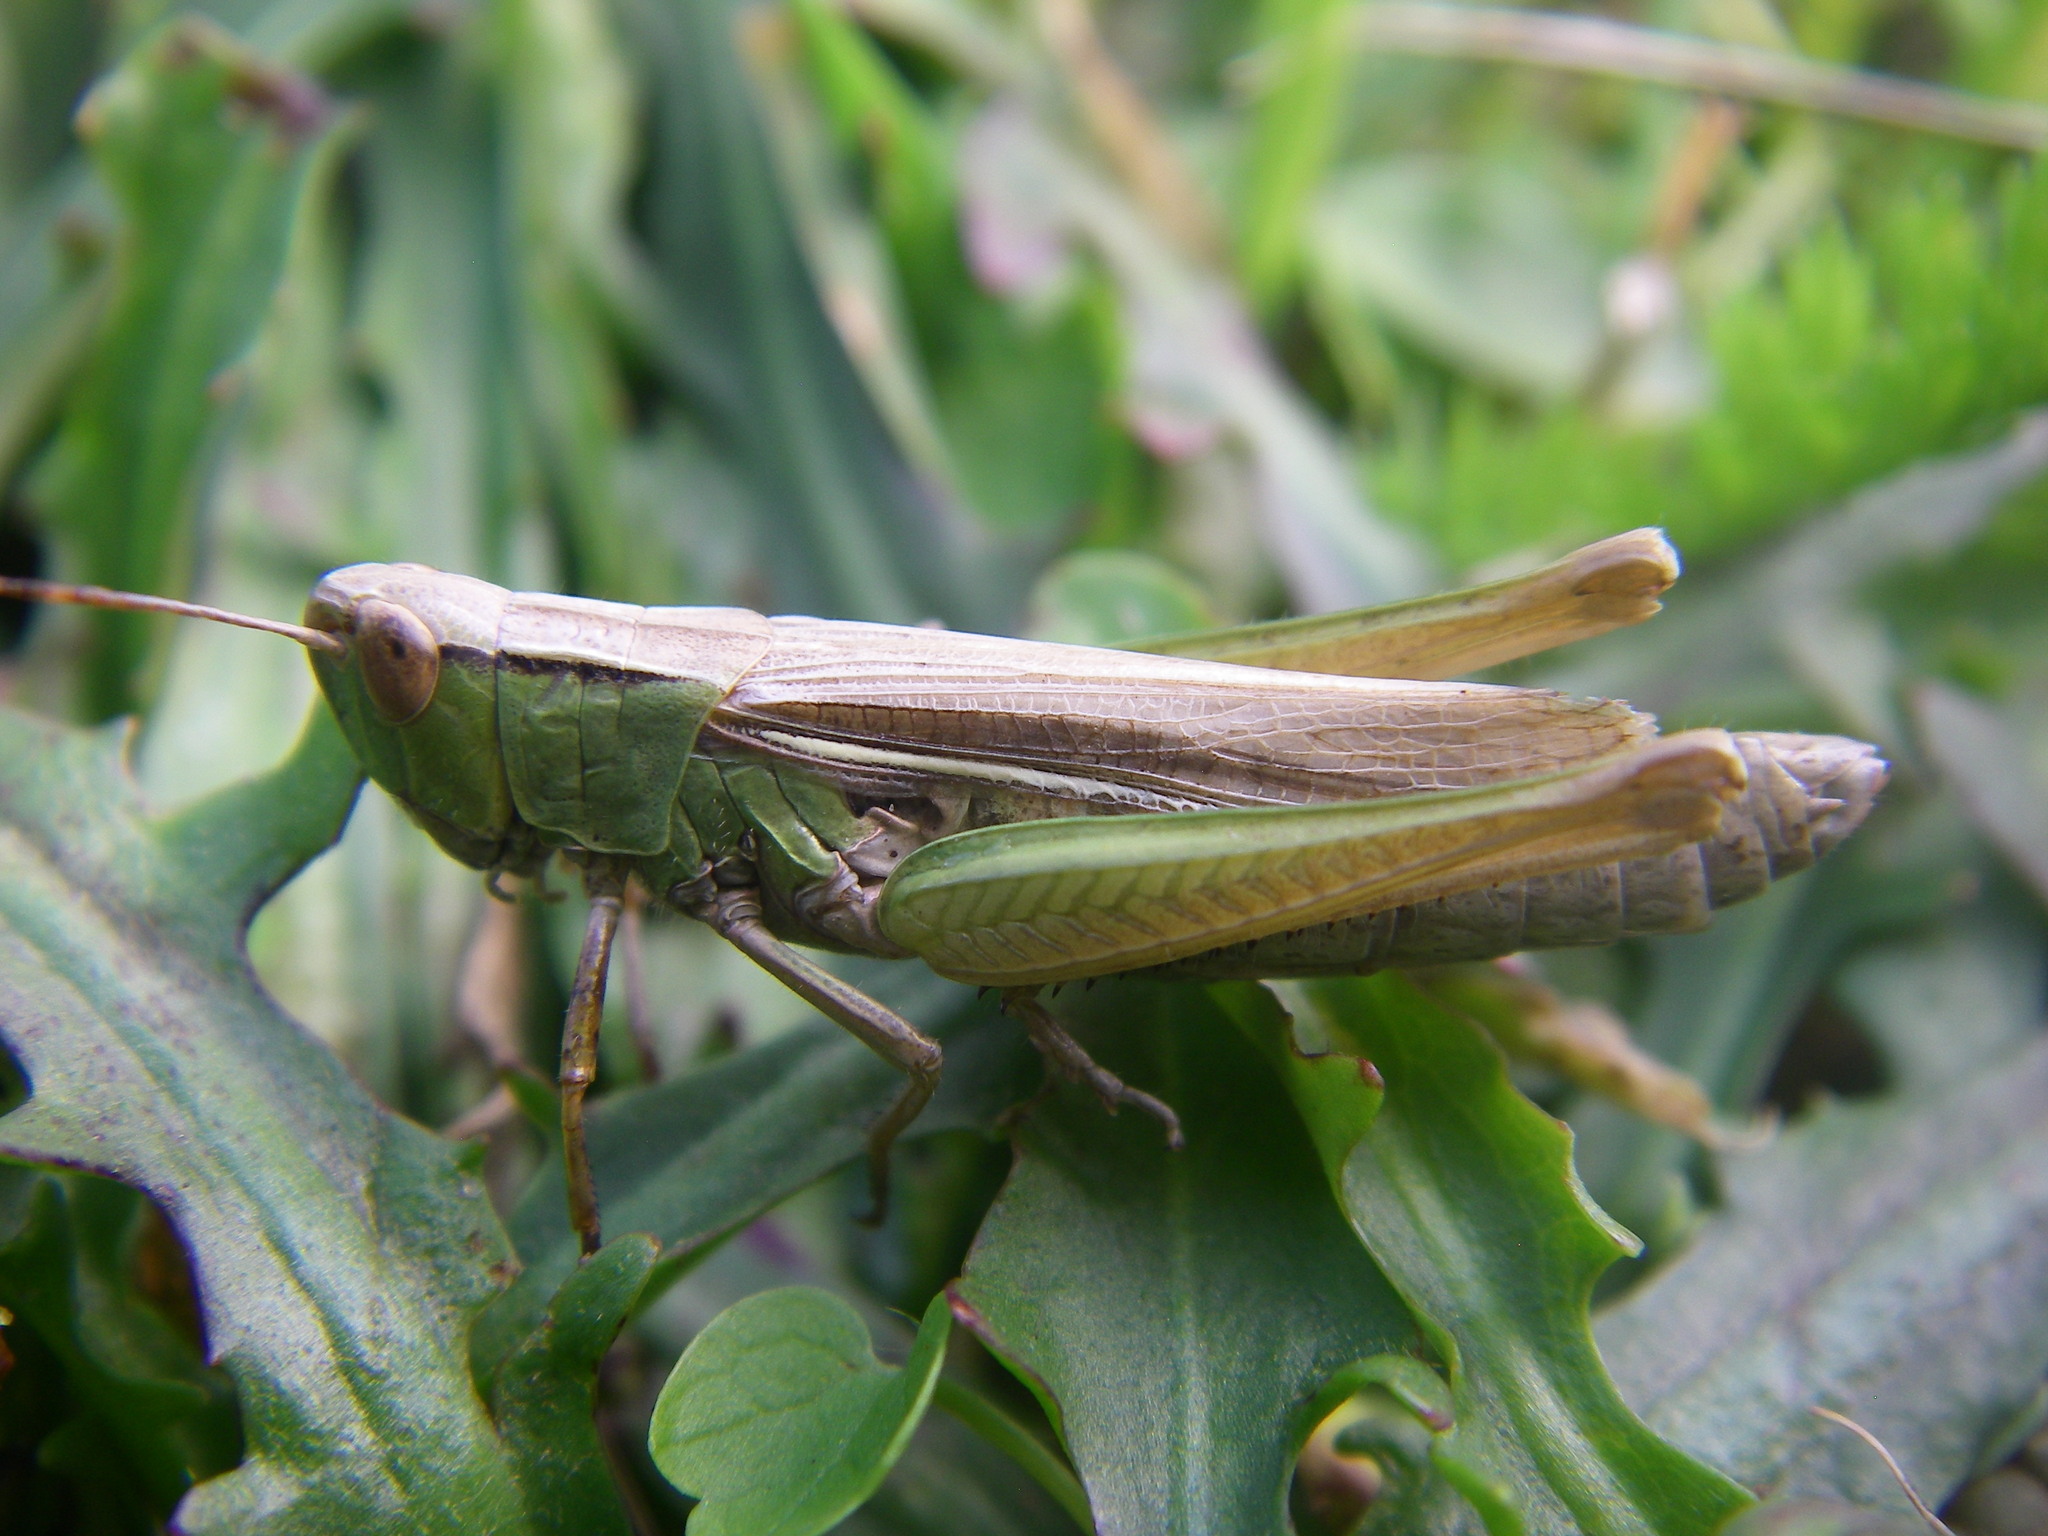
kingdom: Animalia
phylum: Arthropoda
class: Insecta
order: Orthoptera
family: Acrididae
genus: Chorthippus
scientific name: Chorthippus albomarginatus
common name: Lesser marsh grasshopper
